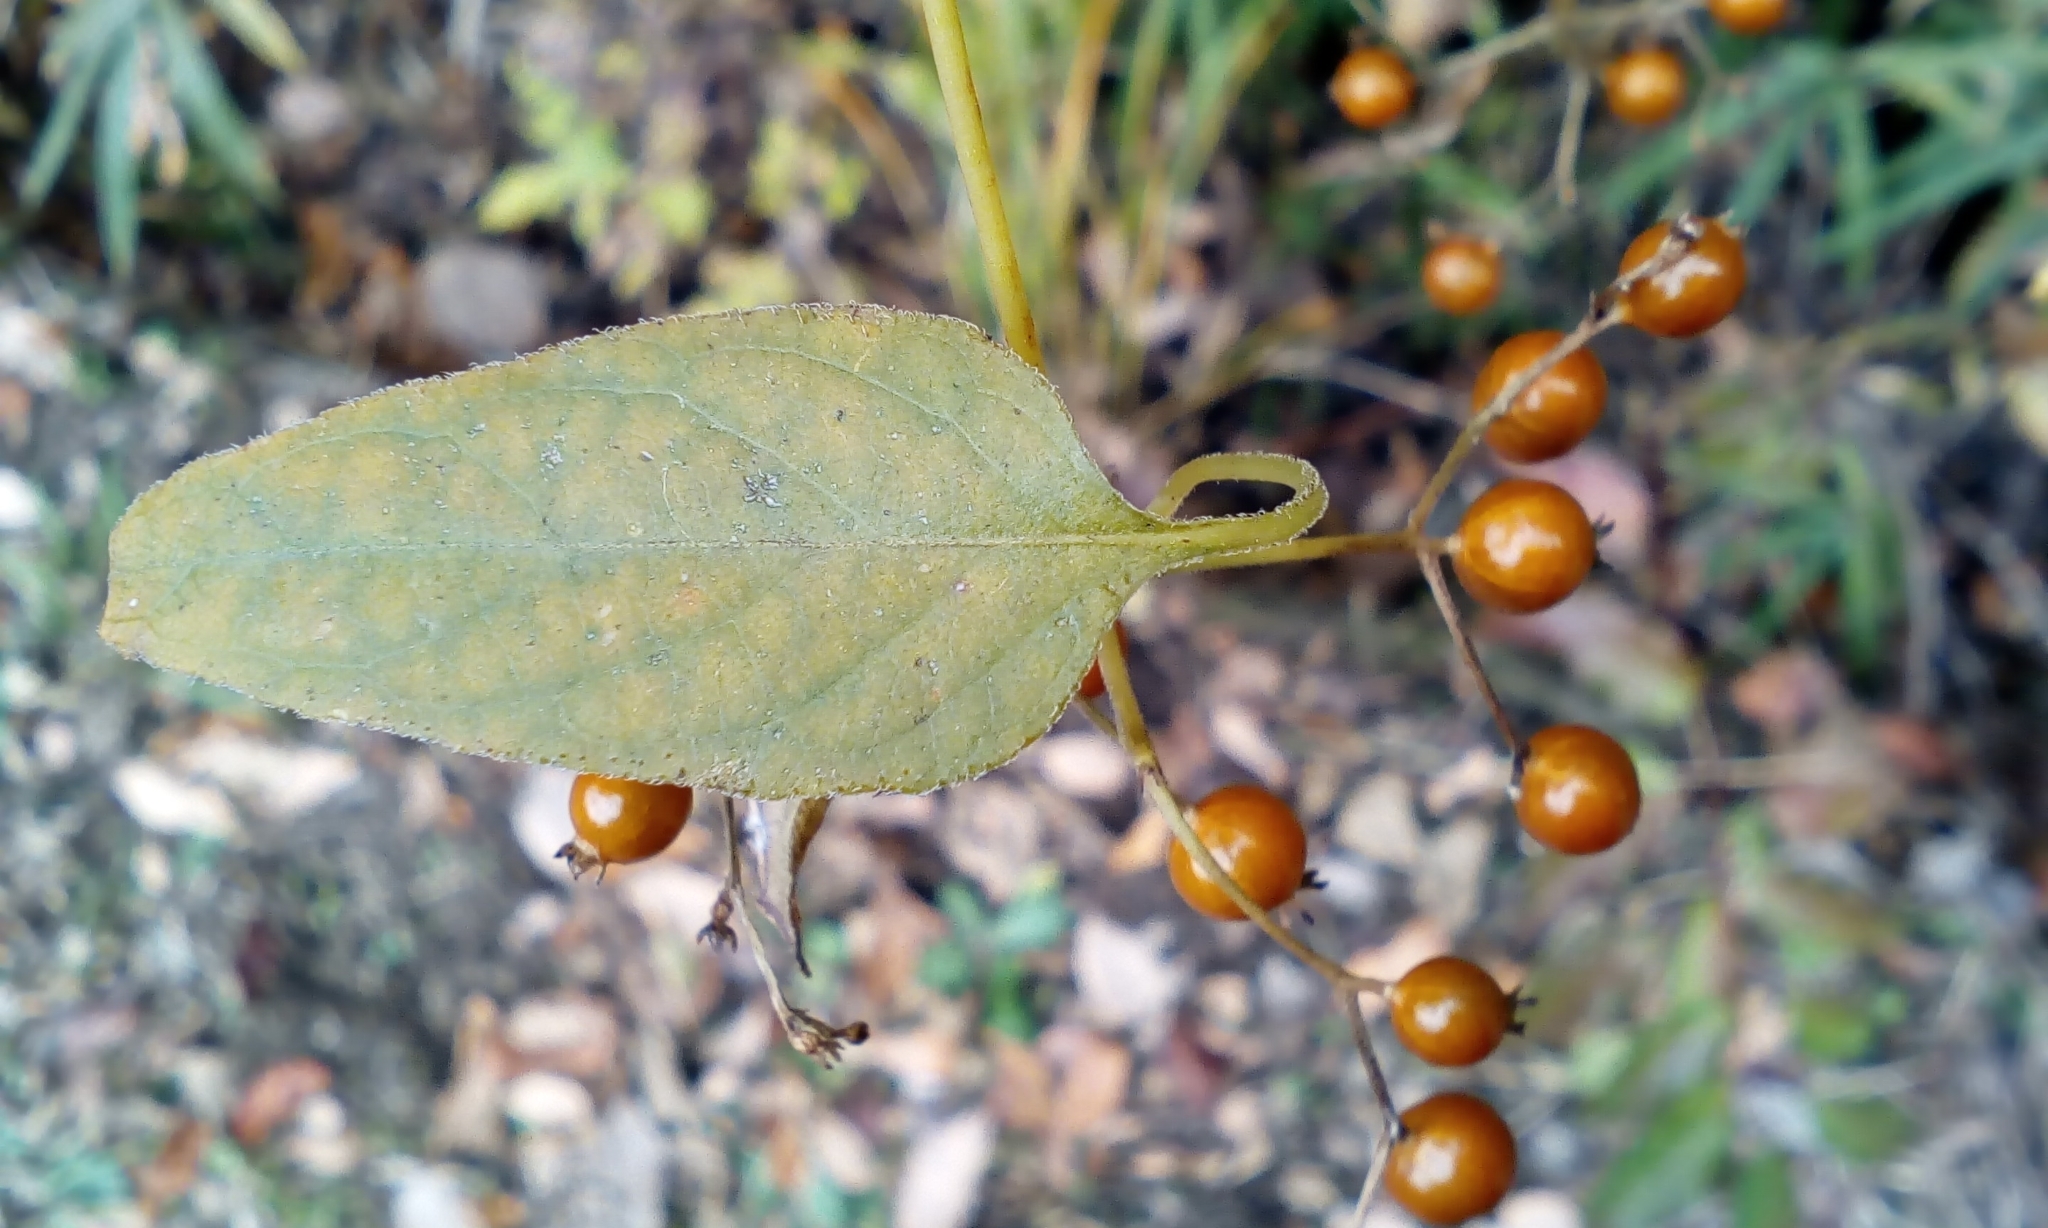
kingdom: Plantae
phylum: Tracheophyta
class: Magnoliopsida
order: Gentianales
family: Rubiaceae
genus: Paederia
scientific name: Paederia foetida
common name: Stinkvine
